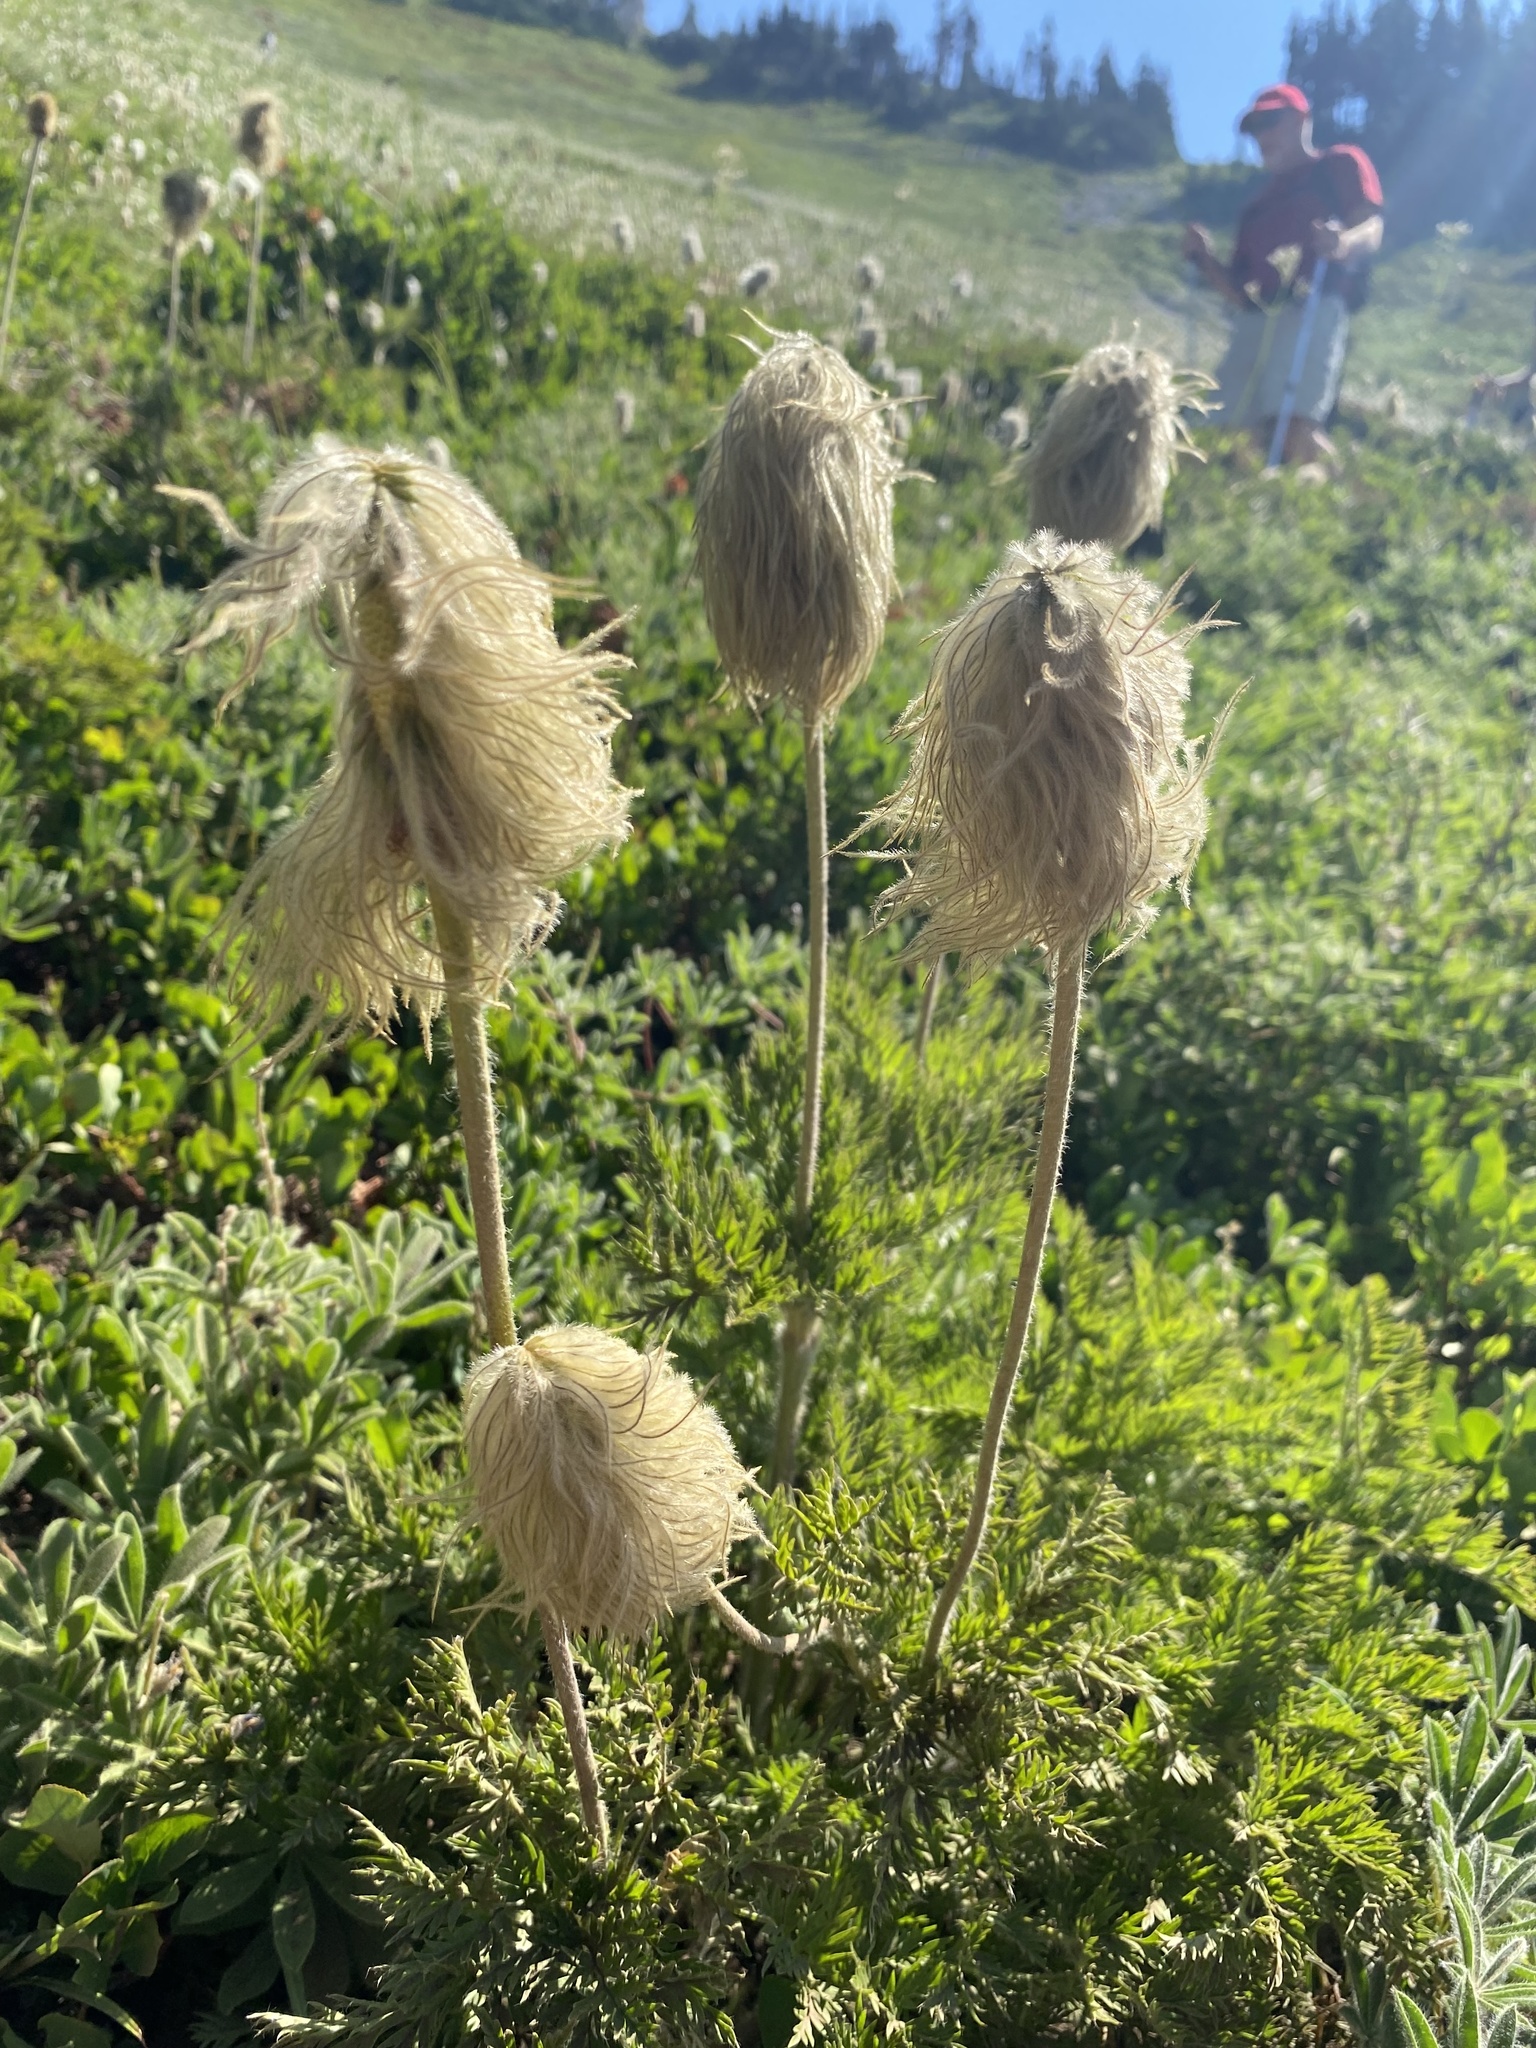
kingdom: Plantae
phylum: Tracheophyta
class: Magnoliopsida
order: Ranunculales
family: Ranunculaceae
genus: Pulsatilla
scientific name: Pulsatilla occidentalis
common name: Mountain pasqueflower
